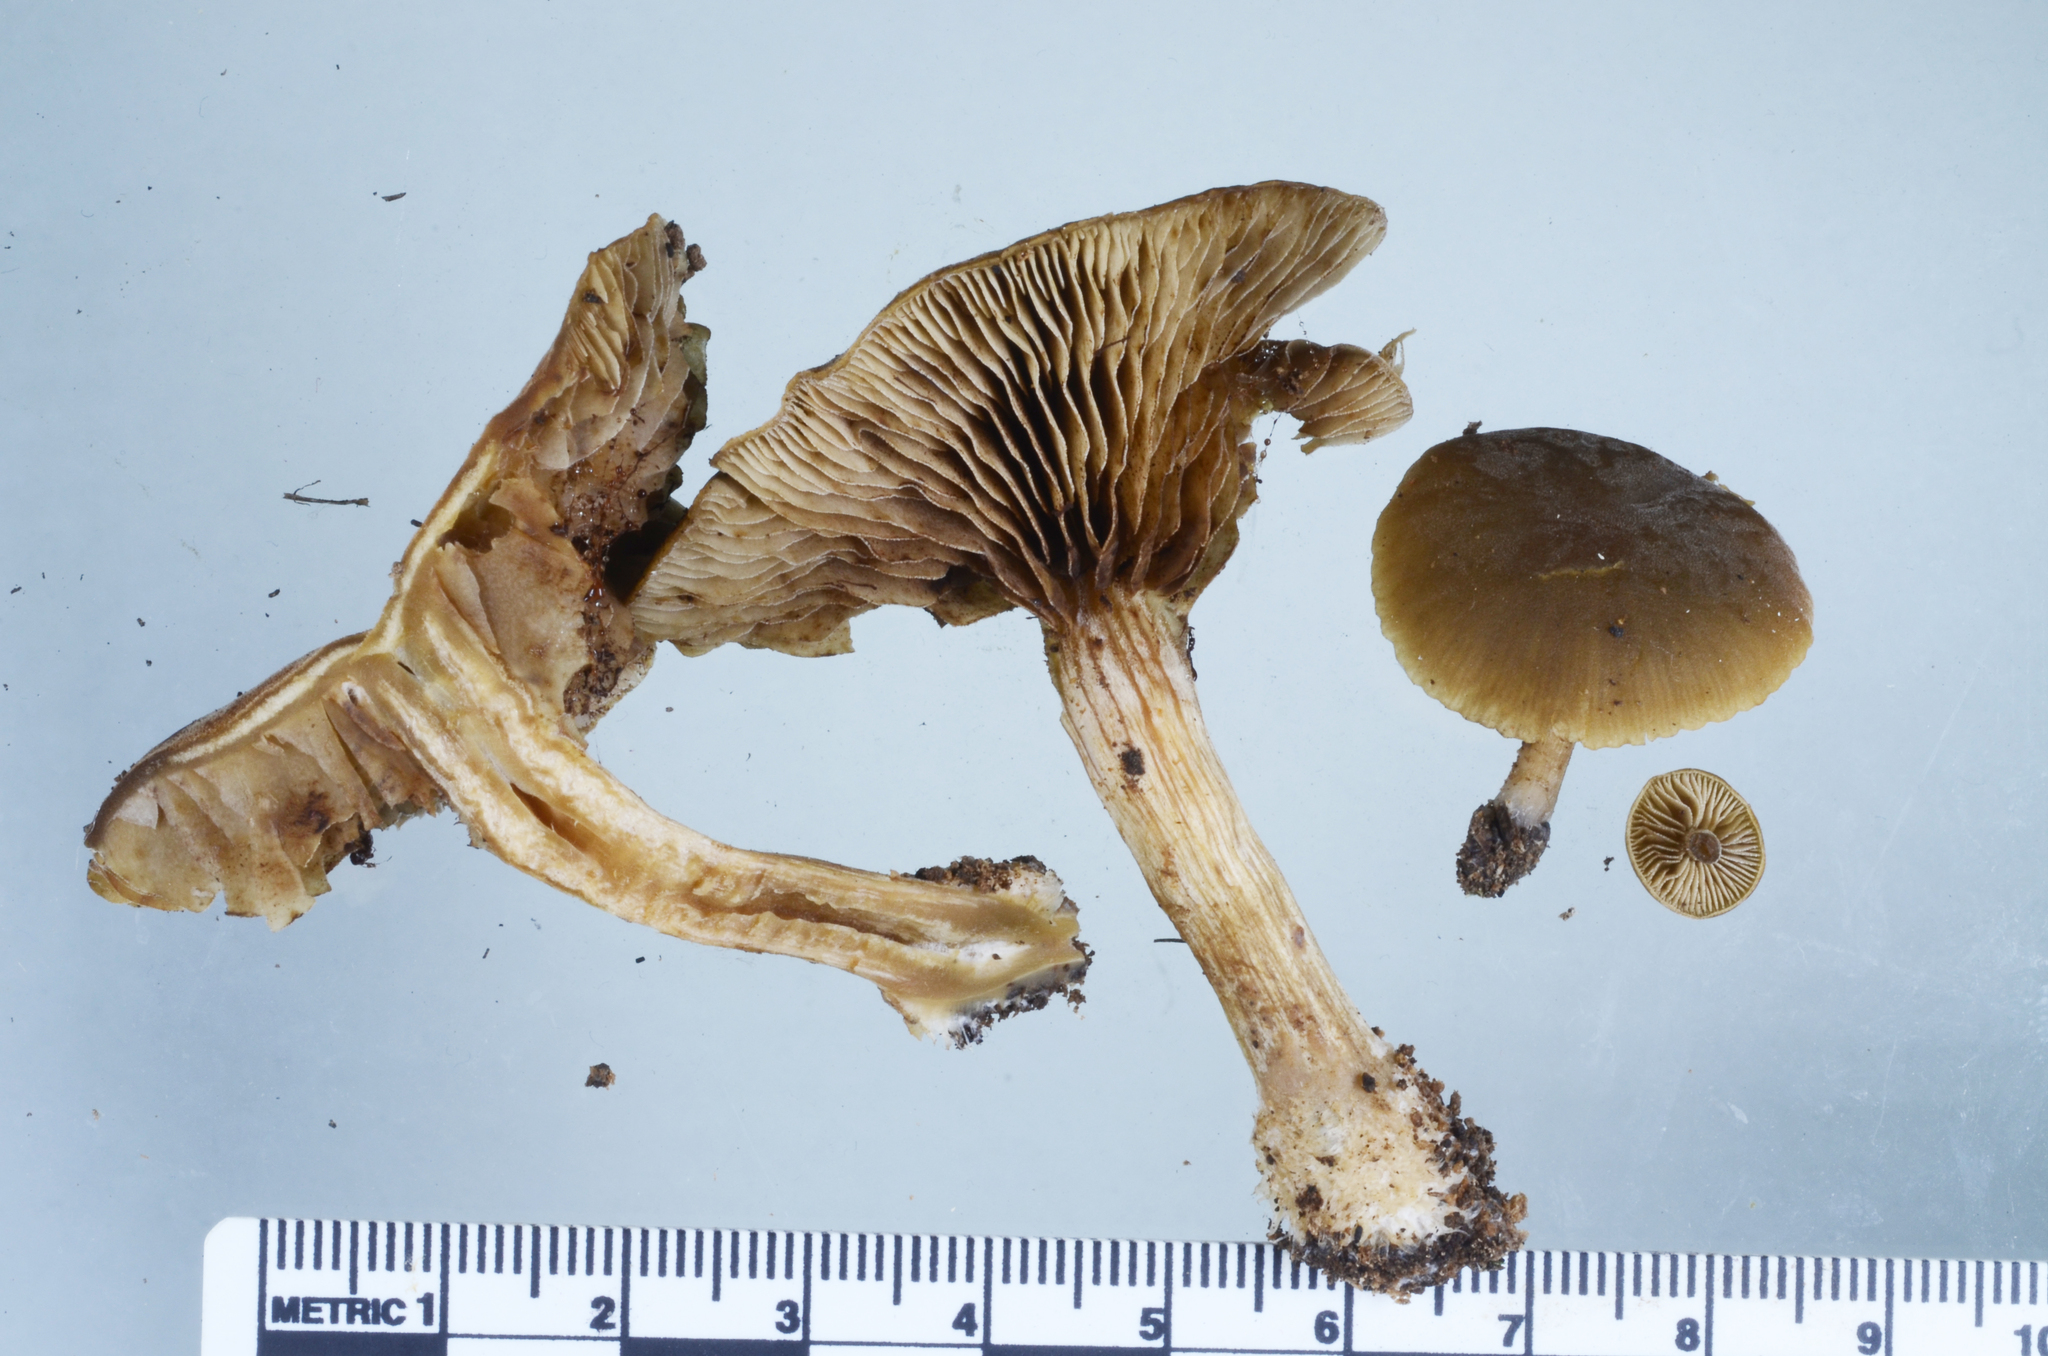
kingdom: Fungi
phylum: Basidiomycota
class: Agaricomycetes
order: Agaricales
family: Crepidotaceae
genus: Simocybe
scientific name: Simocybe serrulata
